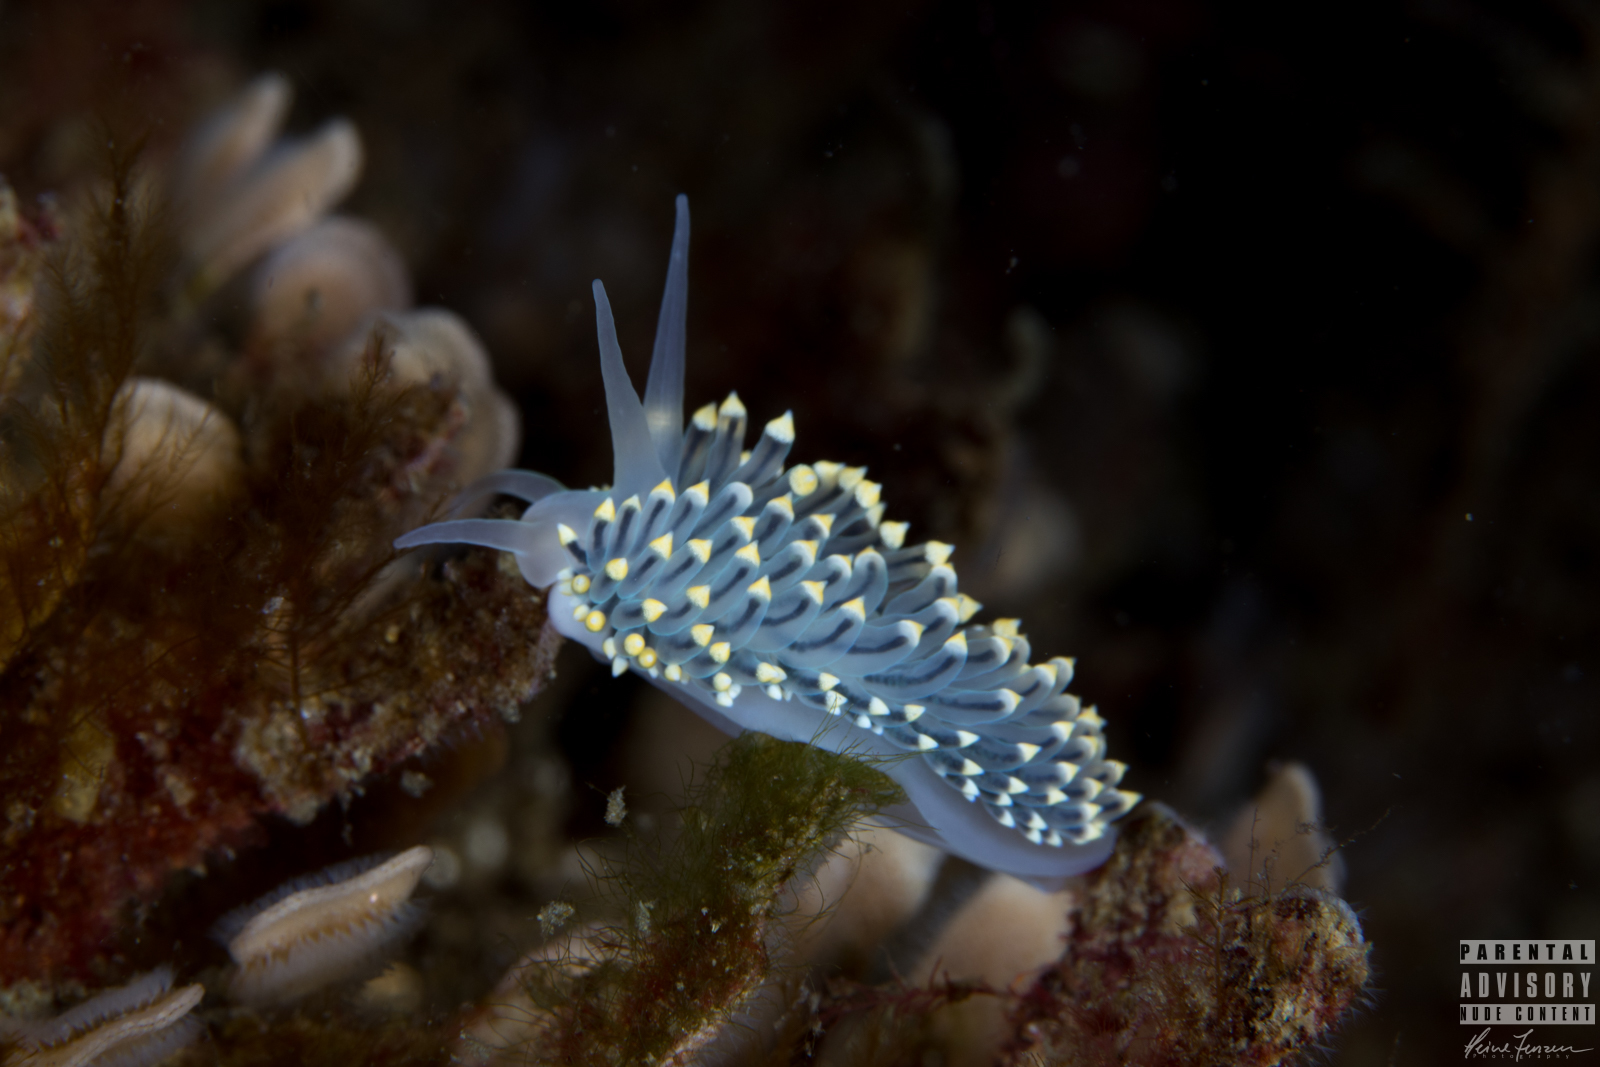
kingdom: Animalia
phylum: Mollusca
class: Gastropoda
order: Nudibranchia
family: Eubranchidae
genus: Eubranchus
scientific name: Eubranchus tricolor
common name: Painted balloon aeolis
